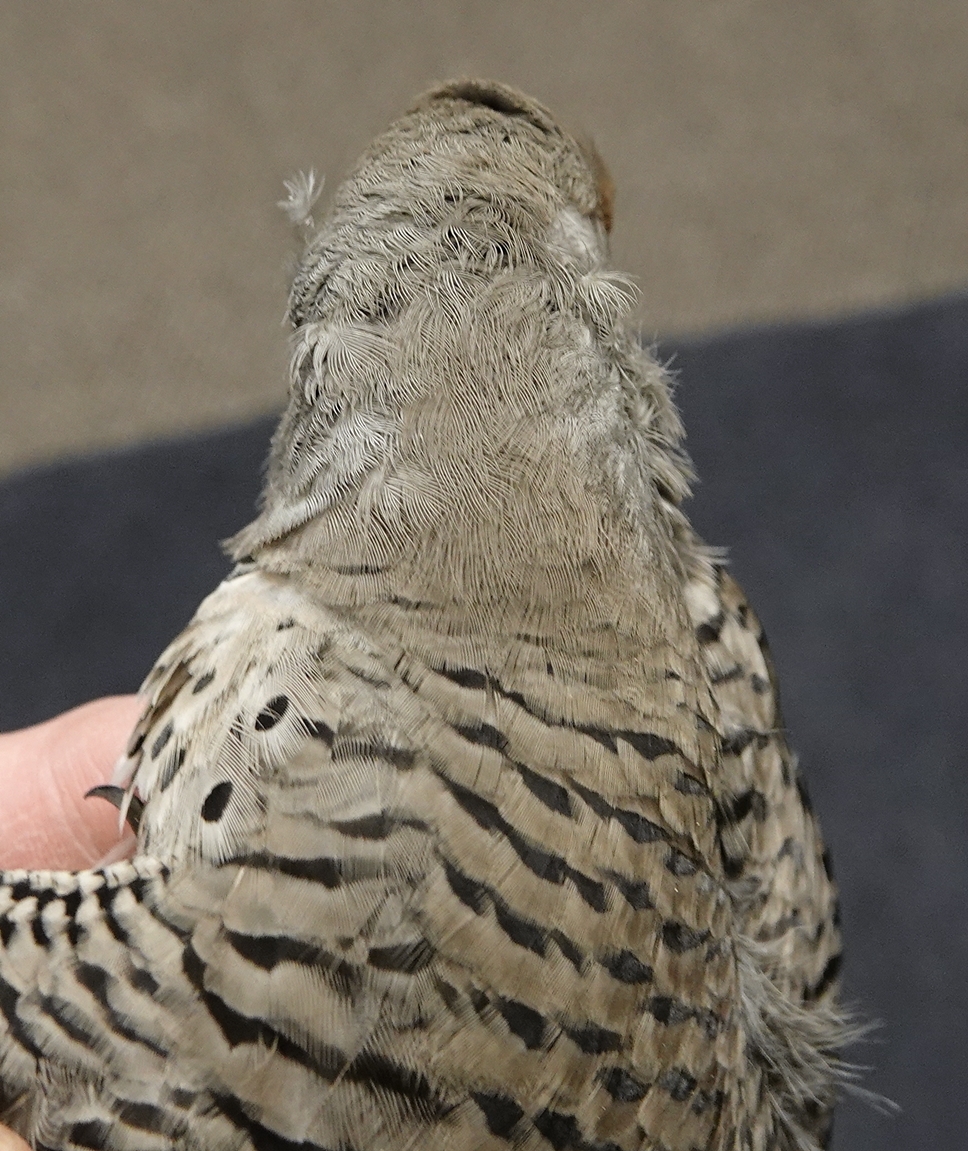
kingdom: Animalia
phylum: Chordata
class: Aves
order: Piciformes
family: Picidae
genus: Colaptes
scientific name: Colaptes auratus
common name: Northern flicker
